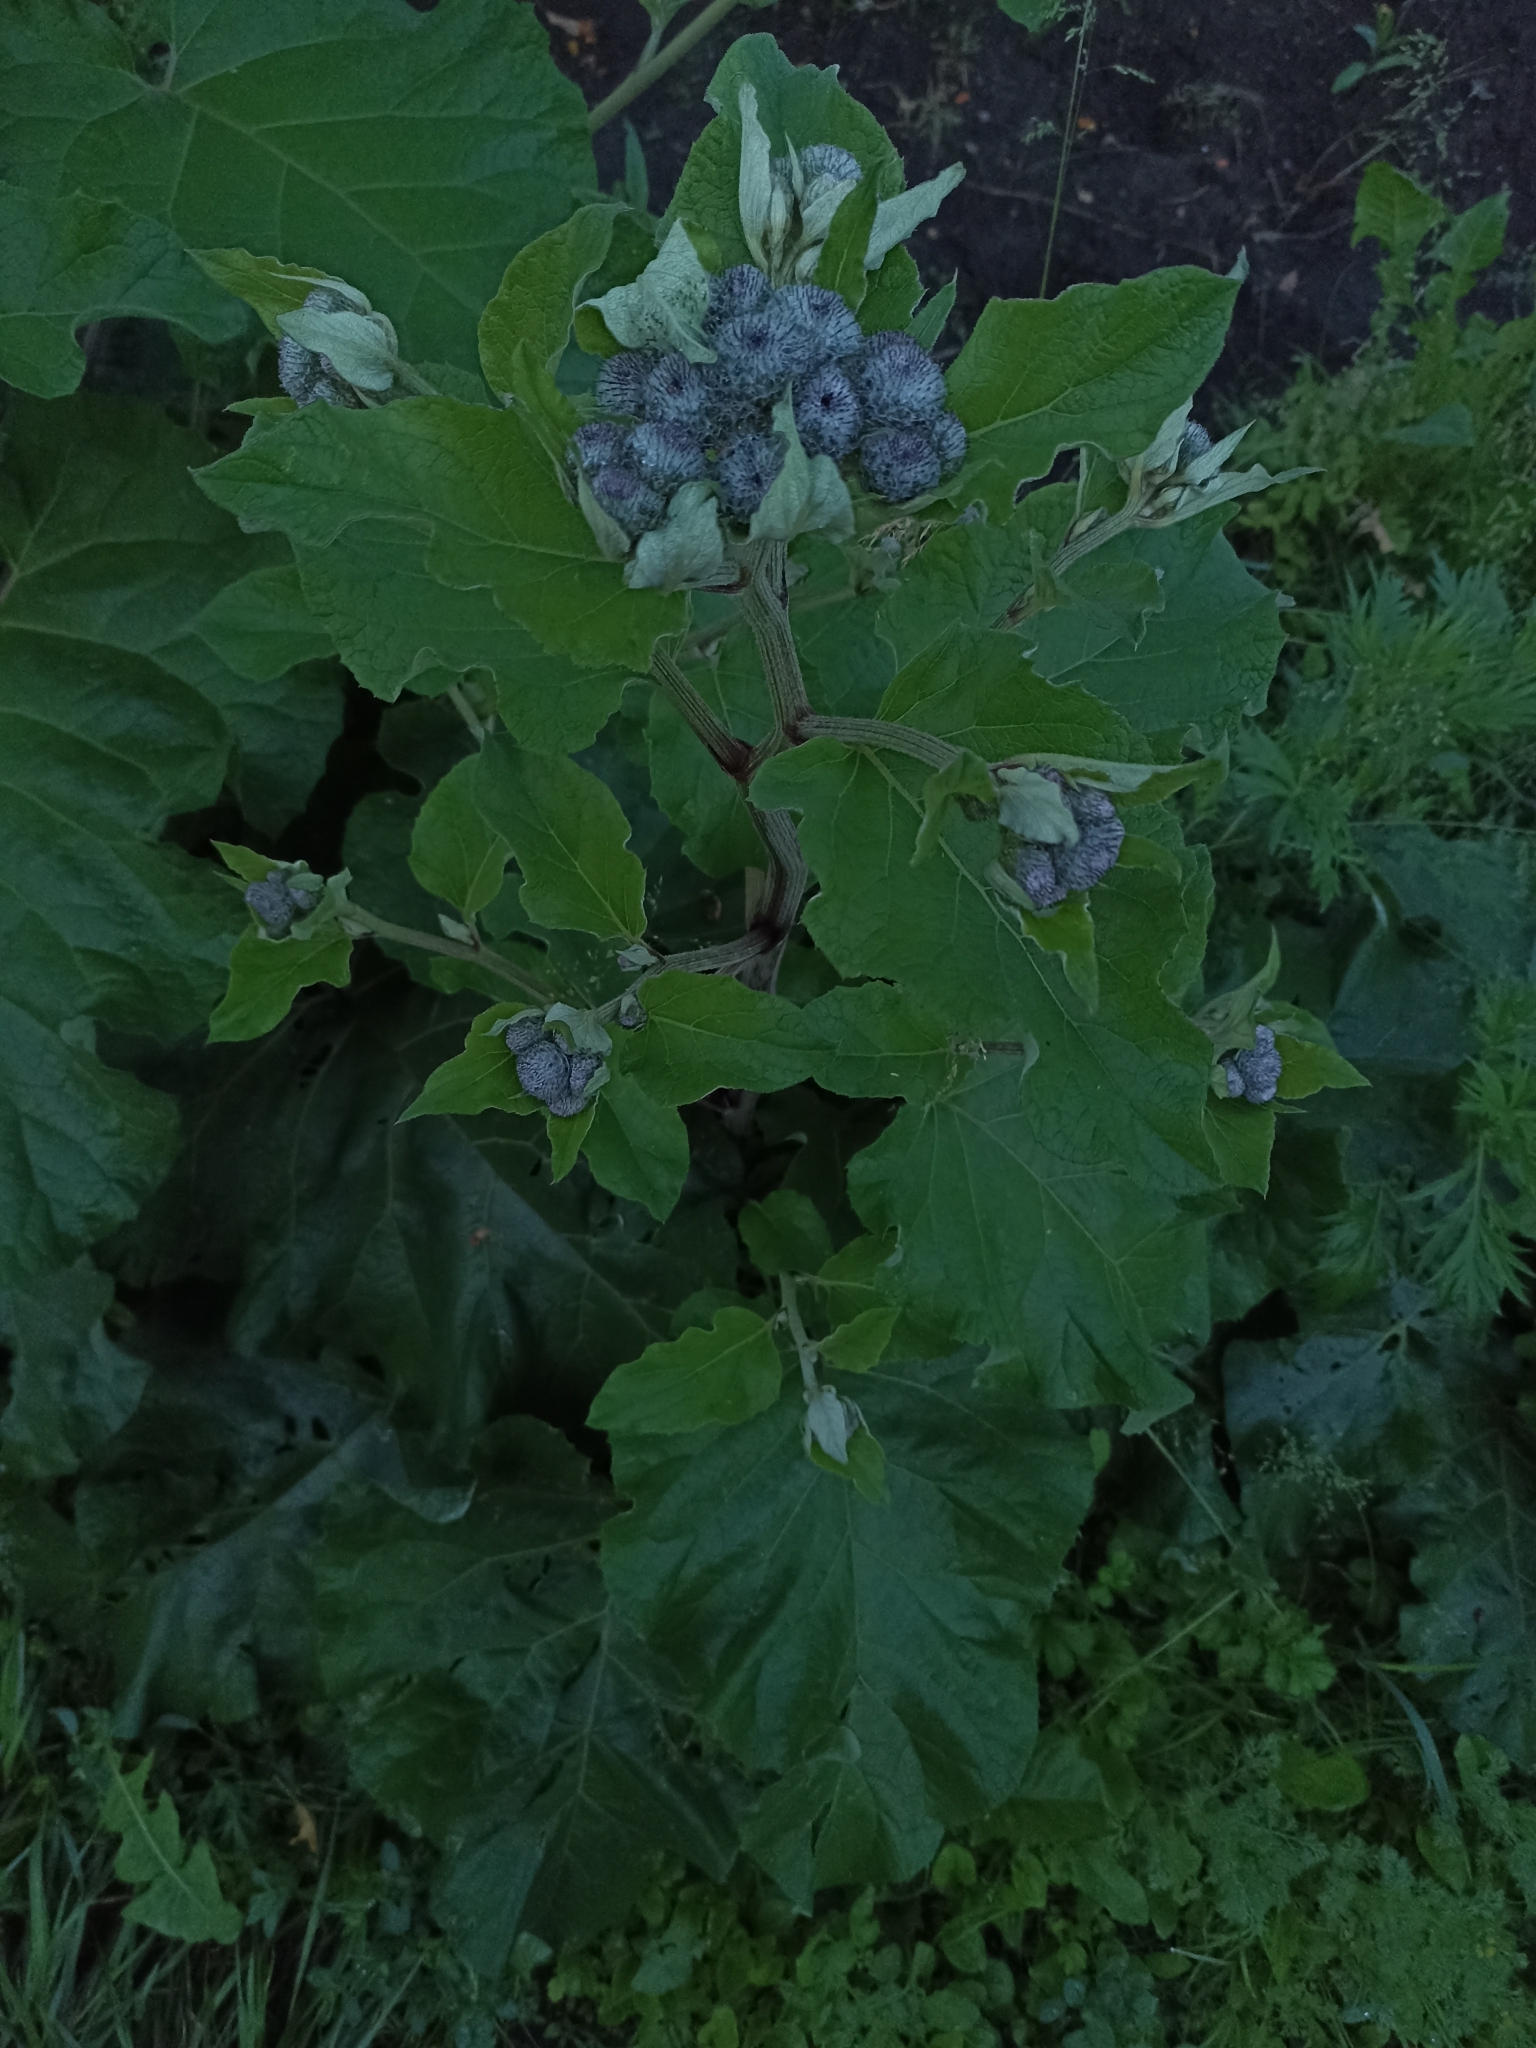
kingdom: Plantae
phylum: Tracheophyta
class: Magnoliopsida
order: Asterales
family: Asteraceae
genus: Arctium
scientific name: Arctium tomentosum
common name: Woolly burdock
